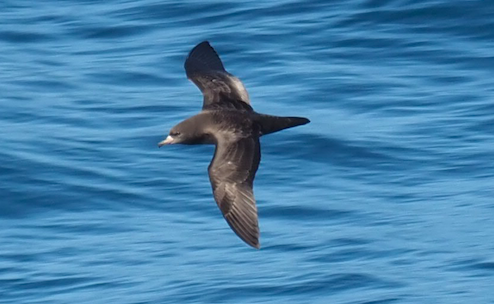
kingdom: Animalia
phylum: Chordata
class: Aves
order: Procellariiformes
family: Procellariidae
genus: Puffinus
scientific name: Puffinus carneipes
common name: Flesh-footed shearwater
